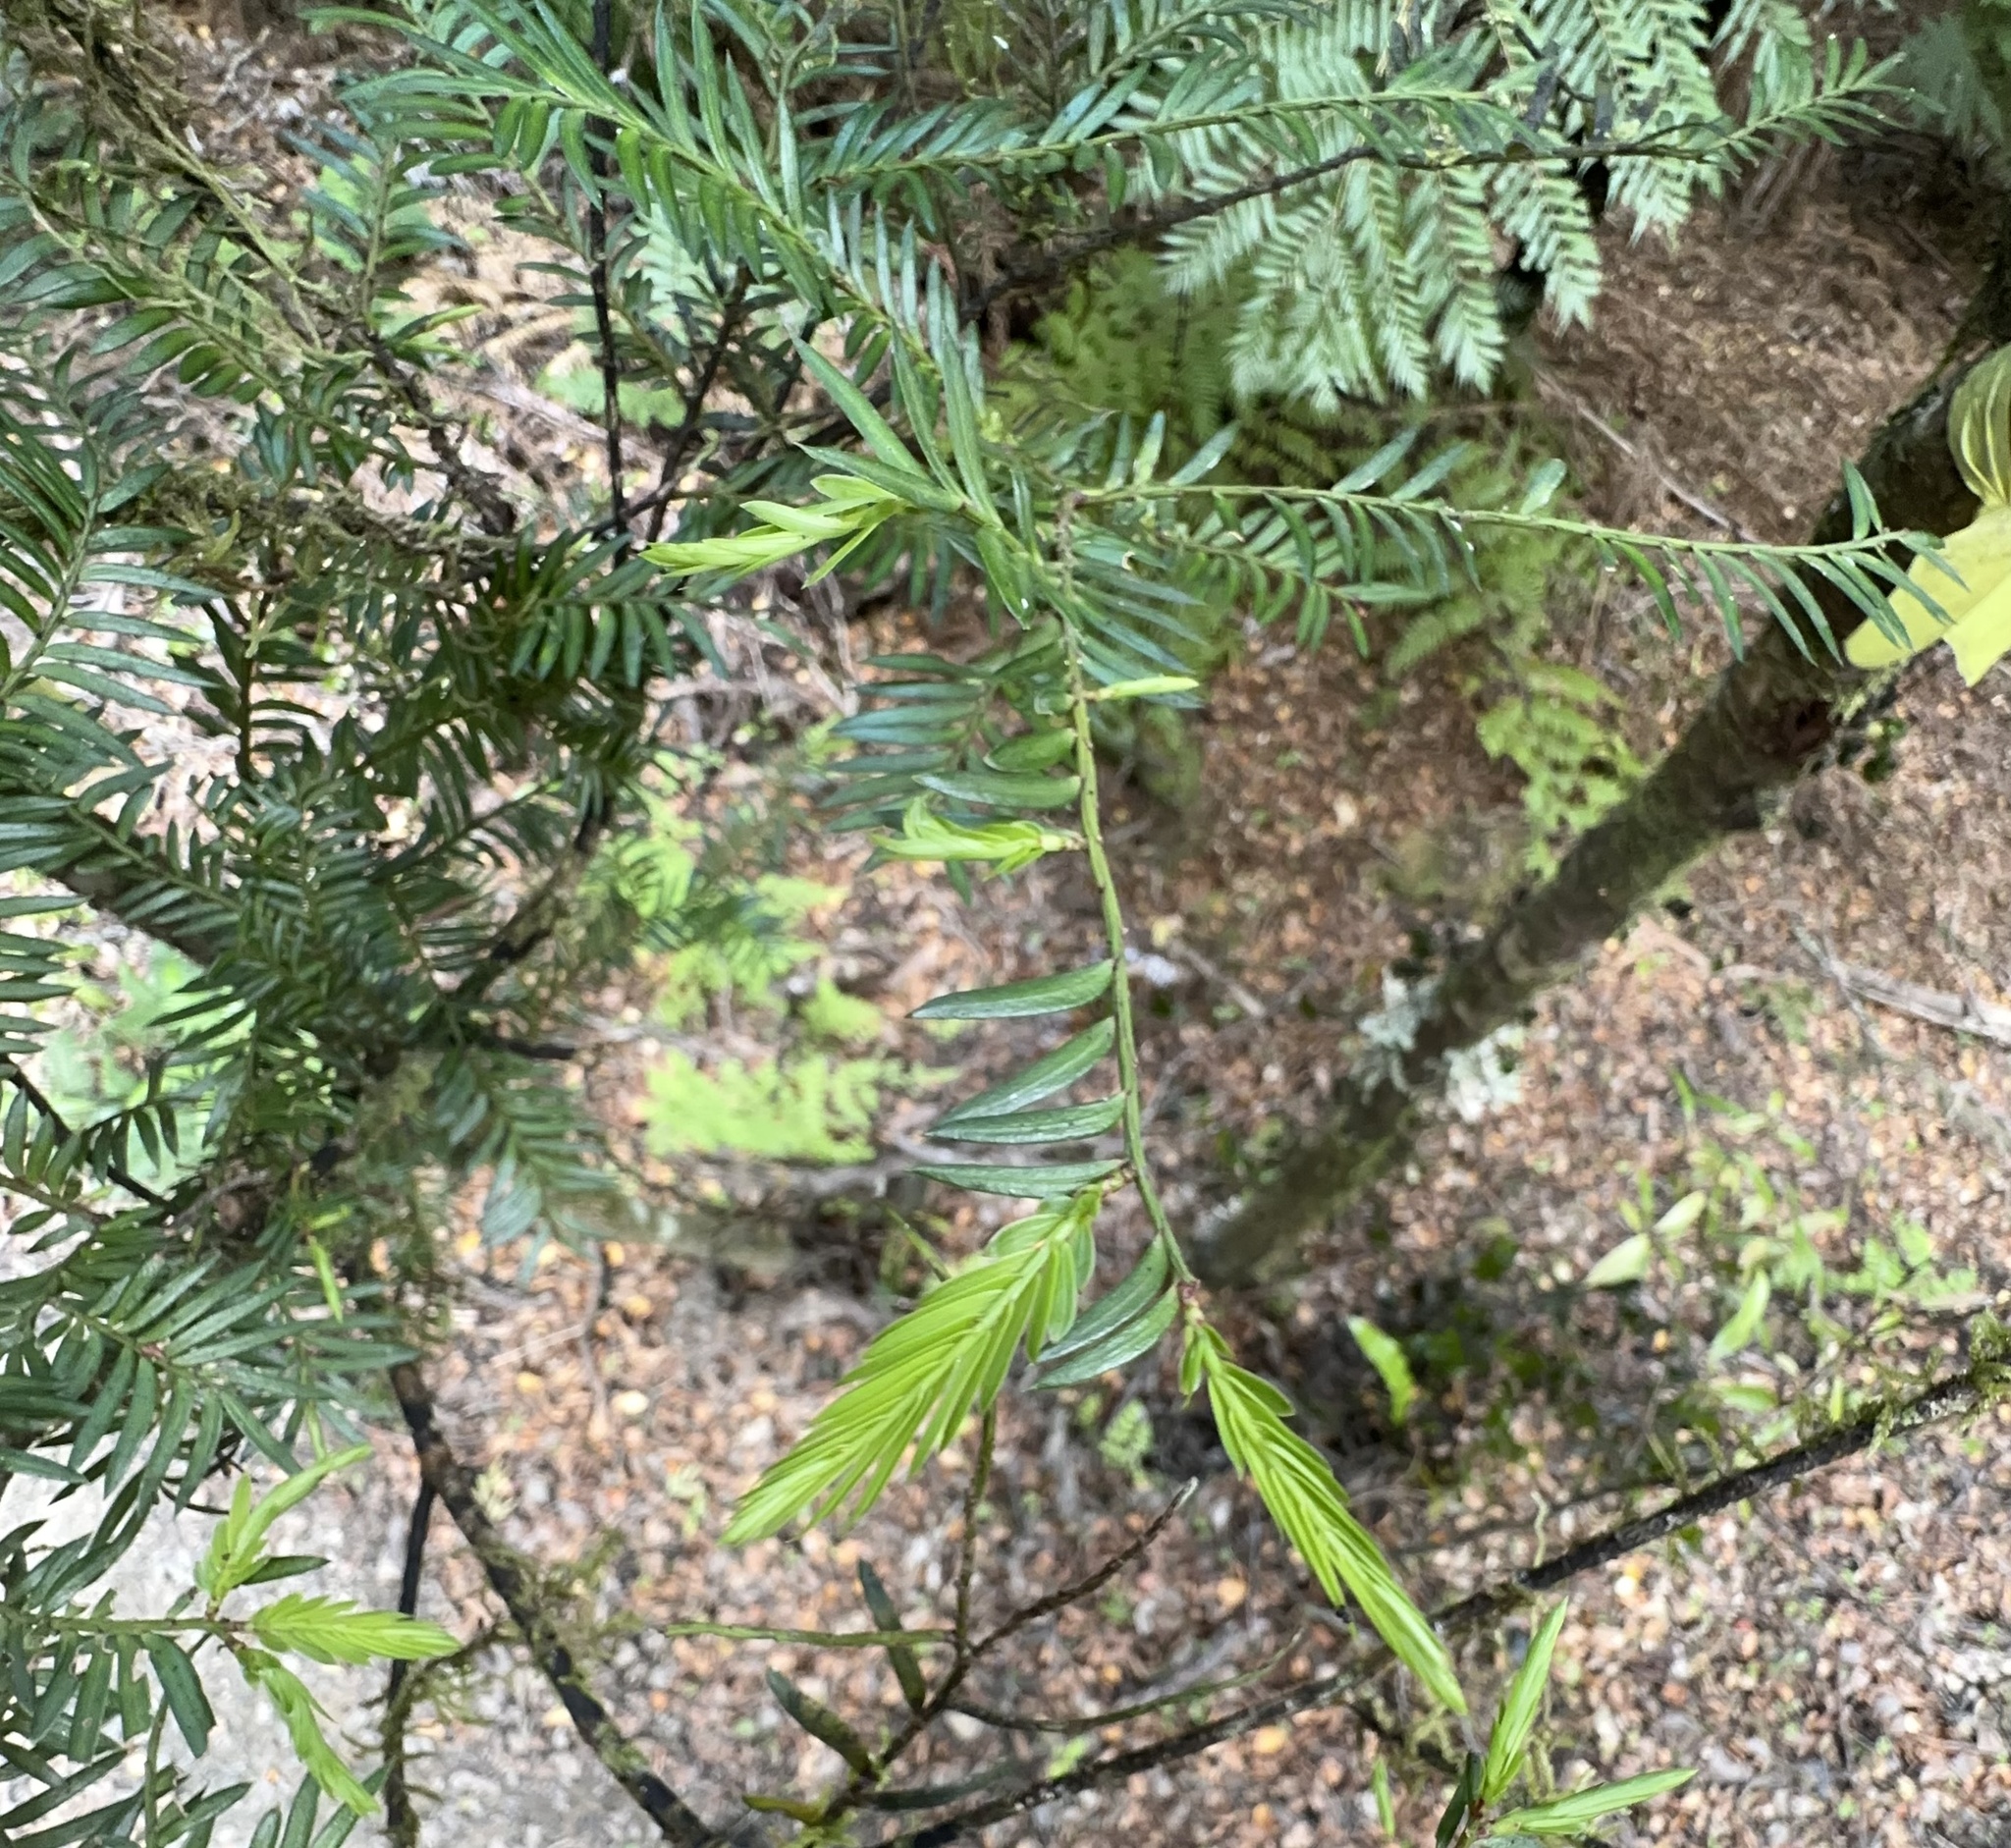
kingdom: Plantae
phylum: Tracheophyta
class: Pinopsida
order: Pinales
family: Podocarpaceae
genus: Prumnopitys
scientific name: Prumnopitys ferruginea
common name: Brown pine
